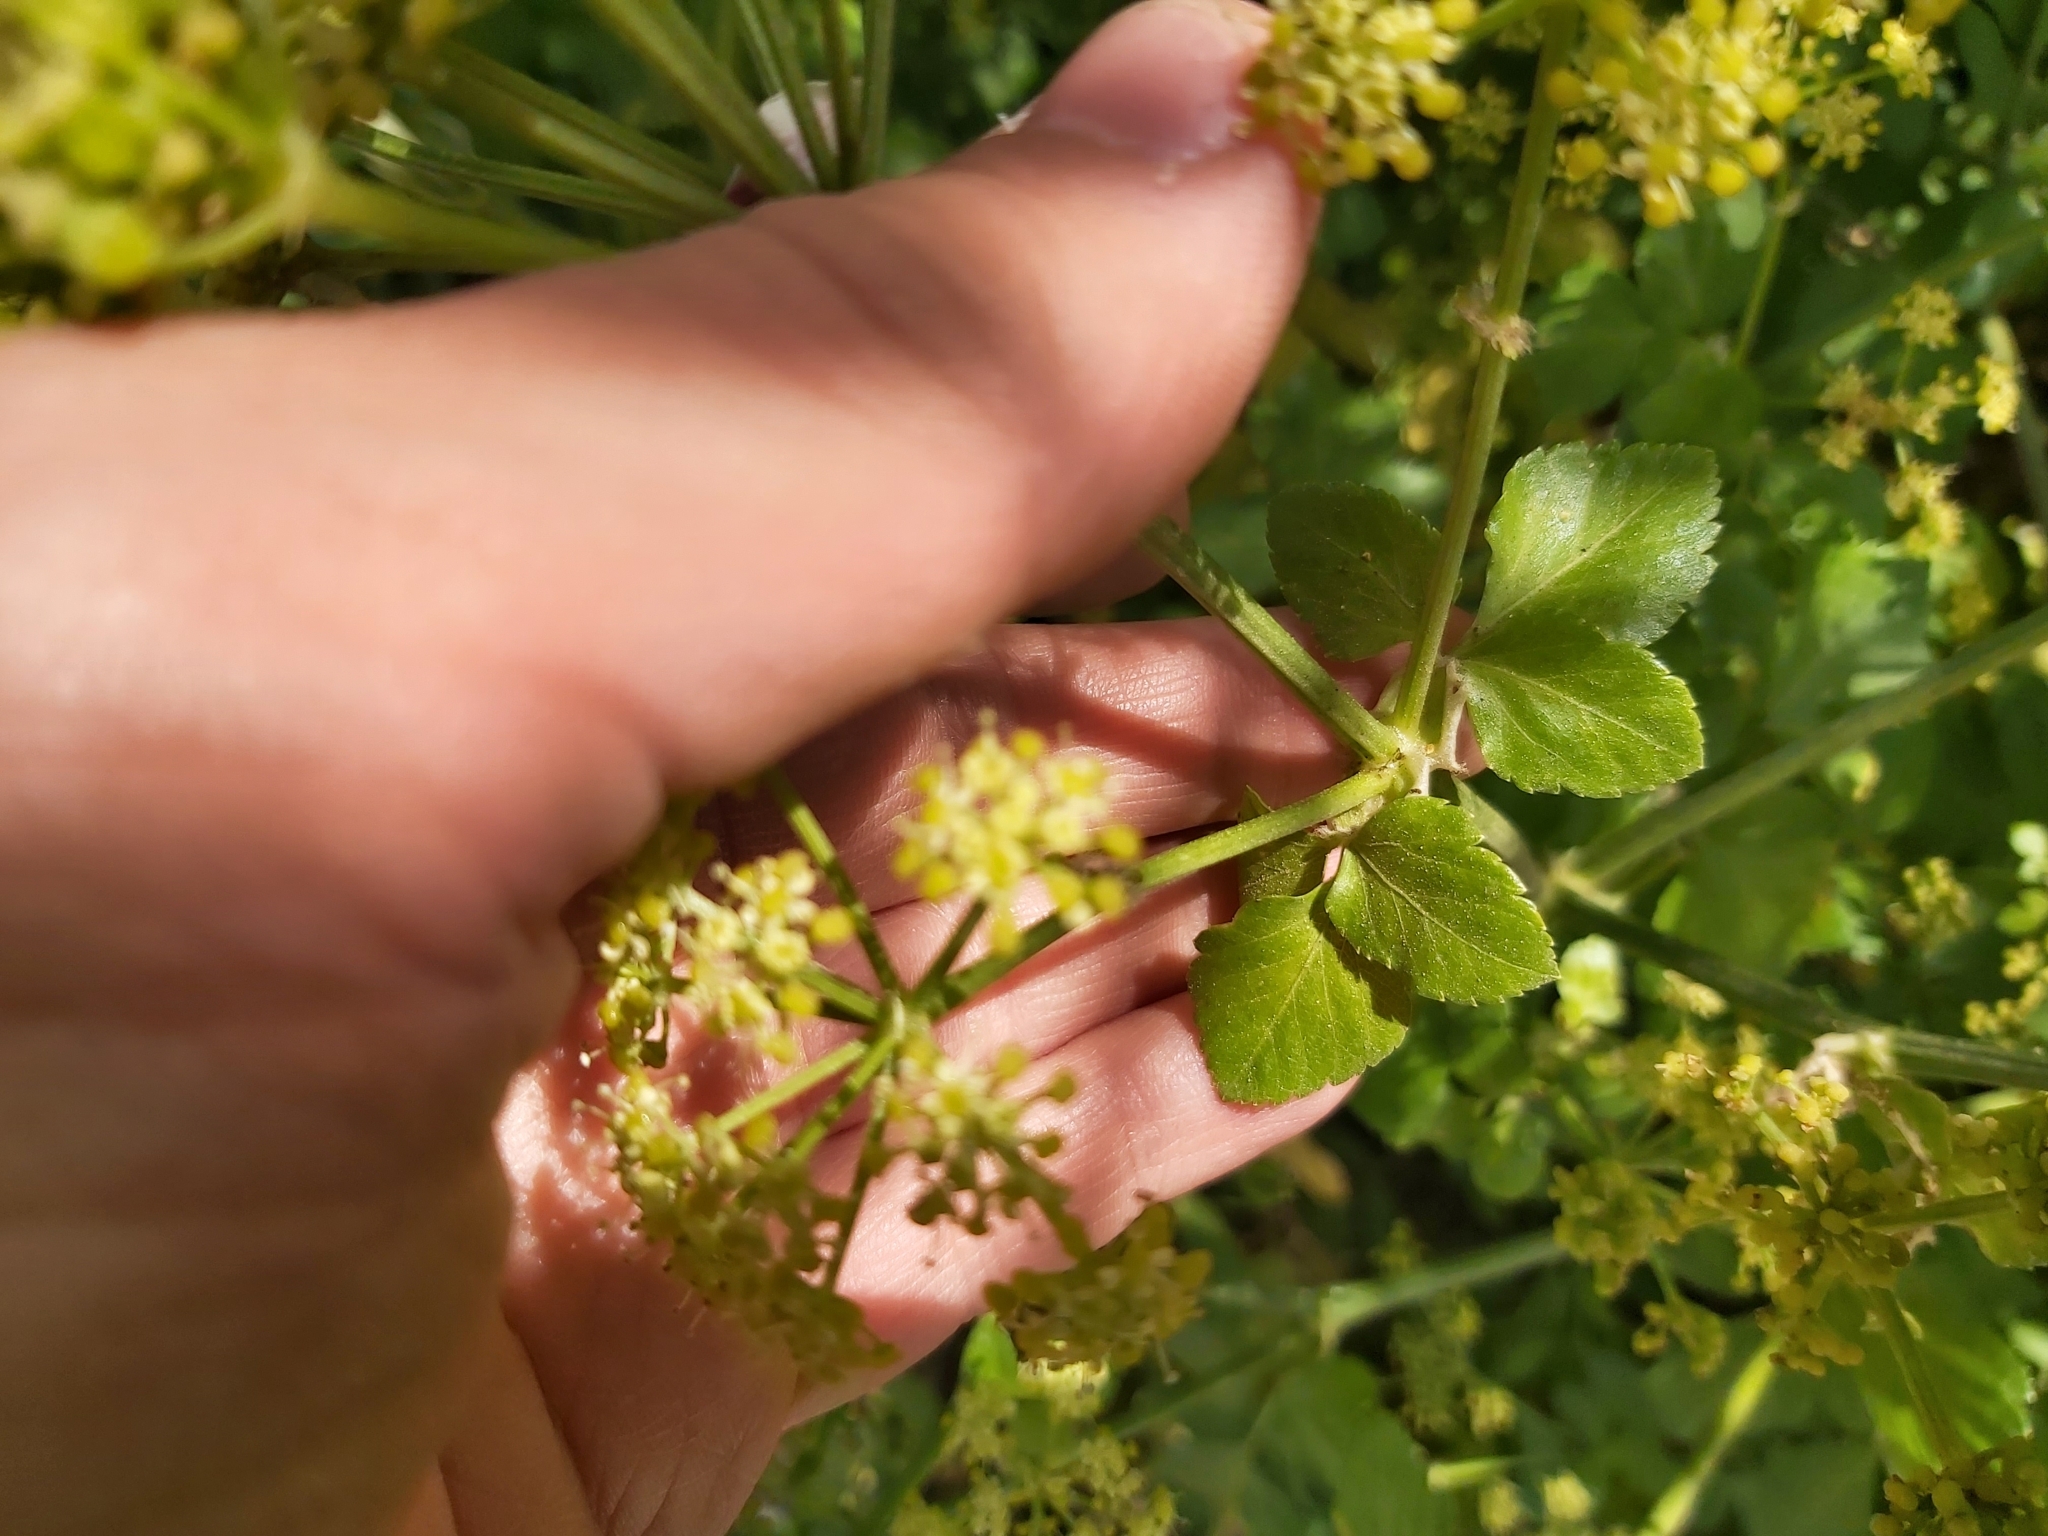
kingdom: Plantae
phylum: Tracheophyta
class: Magnoliopsida
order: Apiales
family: Apiaceae
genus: Smyrnium
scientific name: Smyrnium olusatrum
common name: Alexanders
